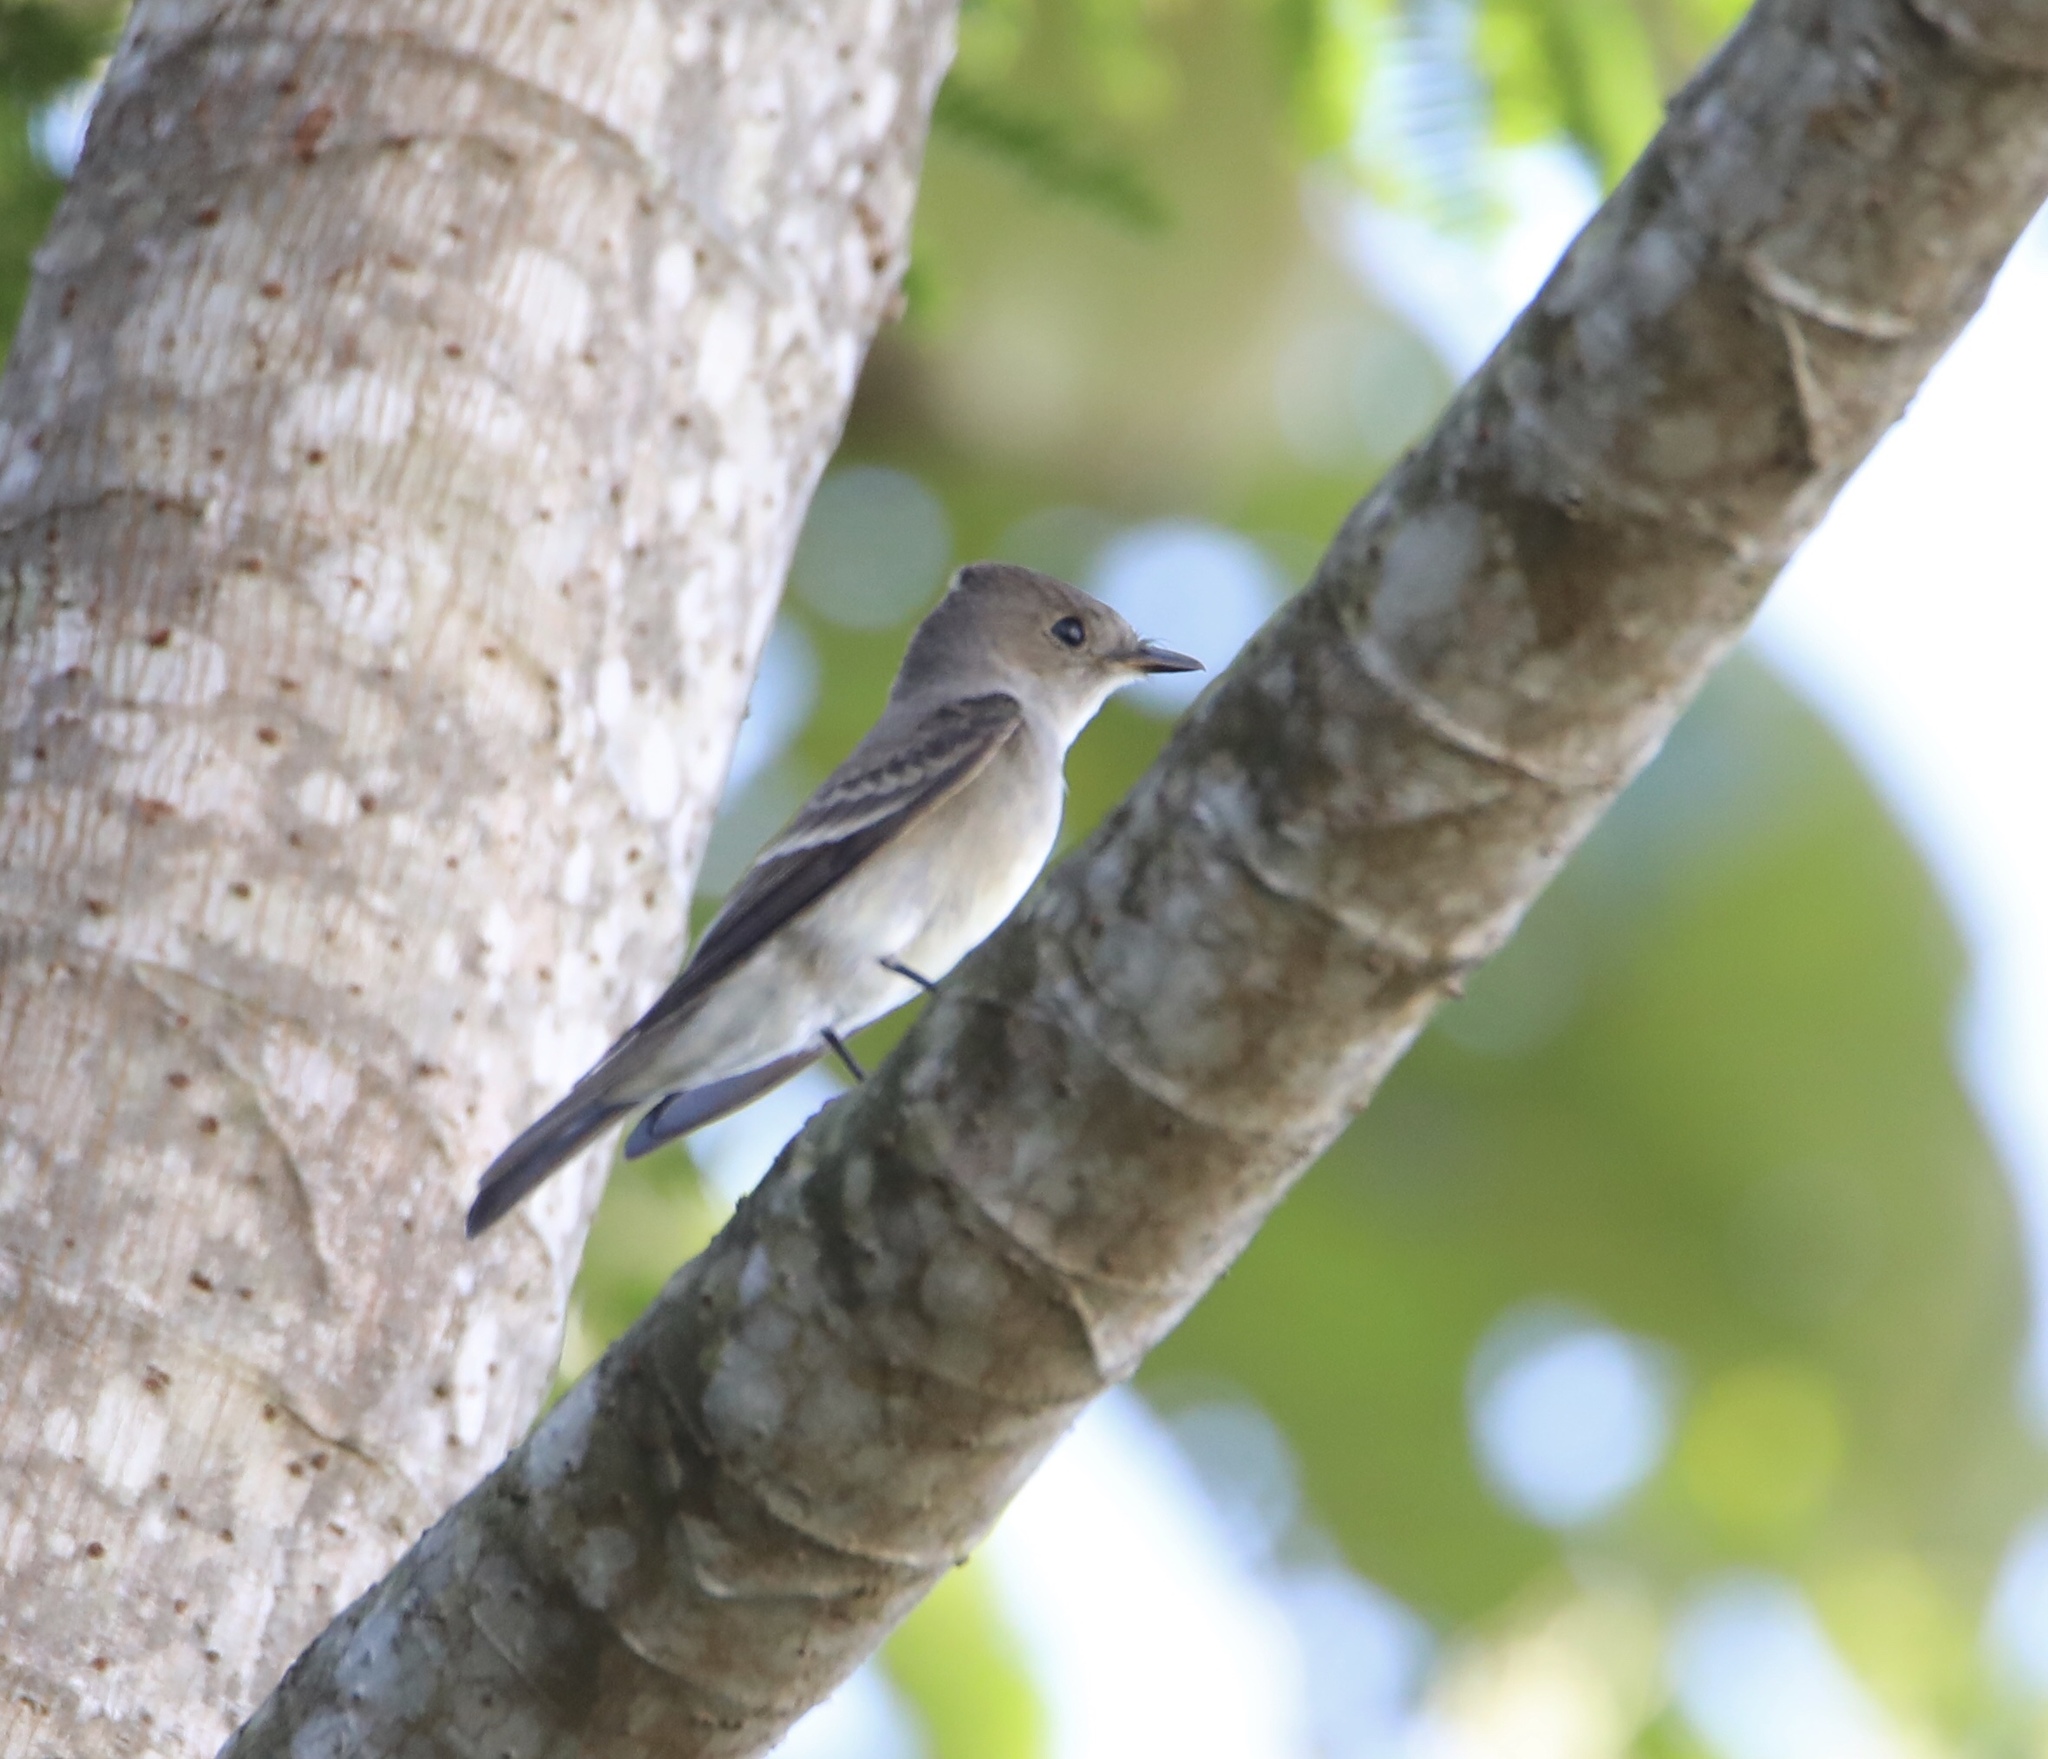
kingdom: Animalia
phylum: Chordata
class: Aves
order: Passeriformes
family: Tyrannidae
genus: Contopus
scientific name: Contopus sordidulus
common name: Western wood-pewee
